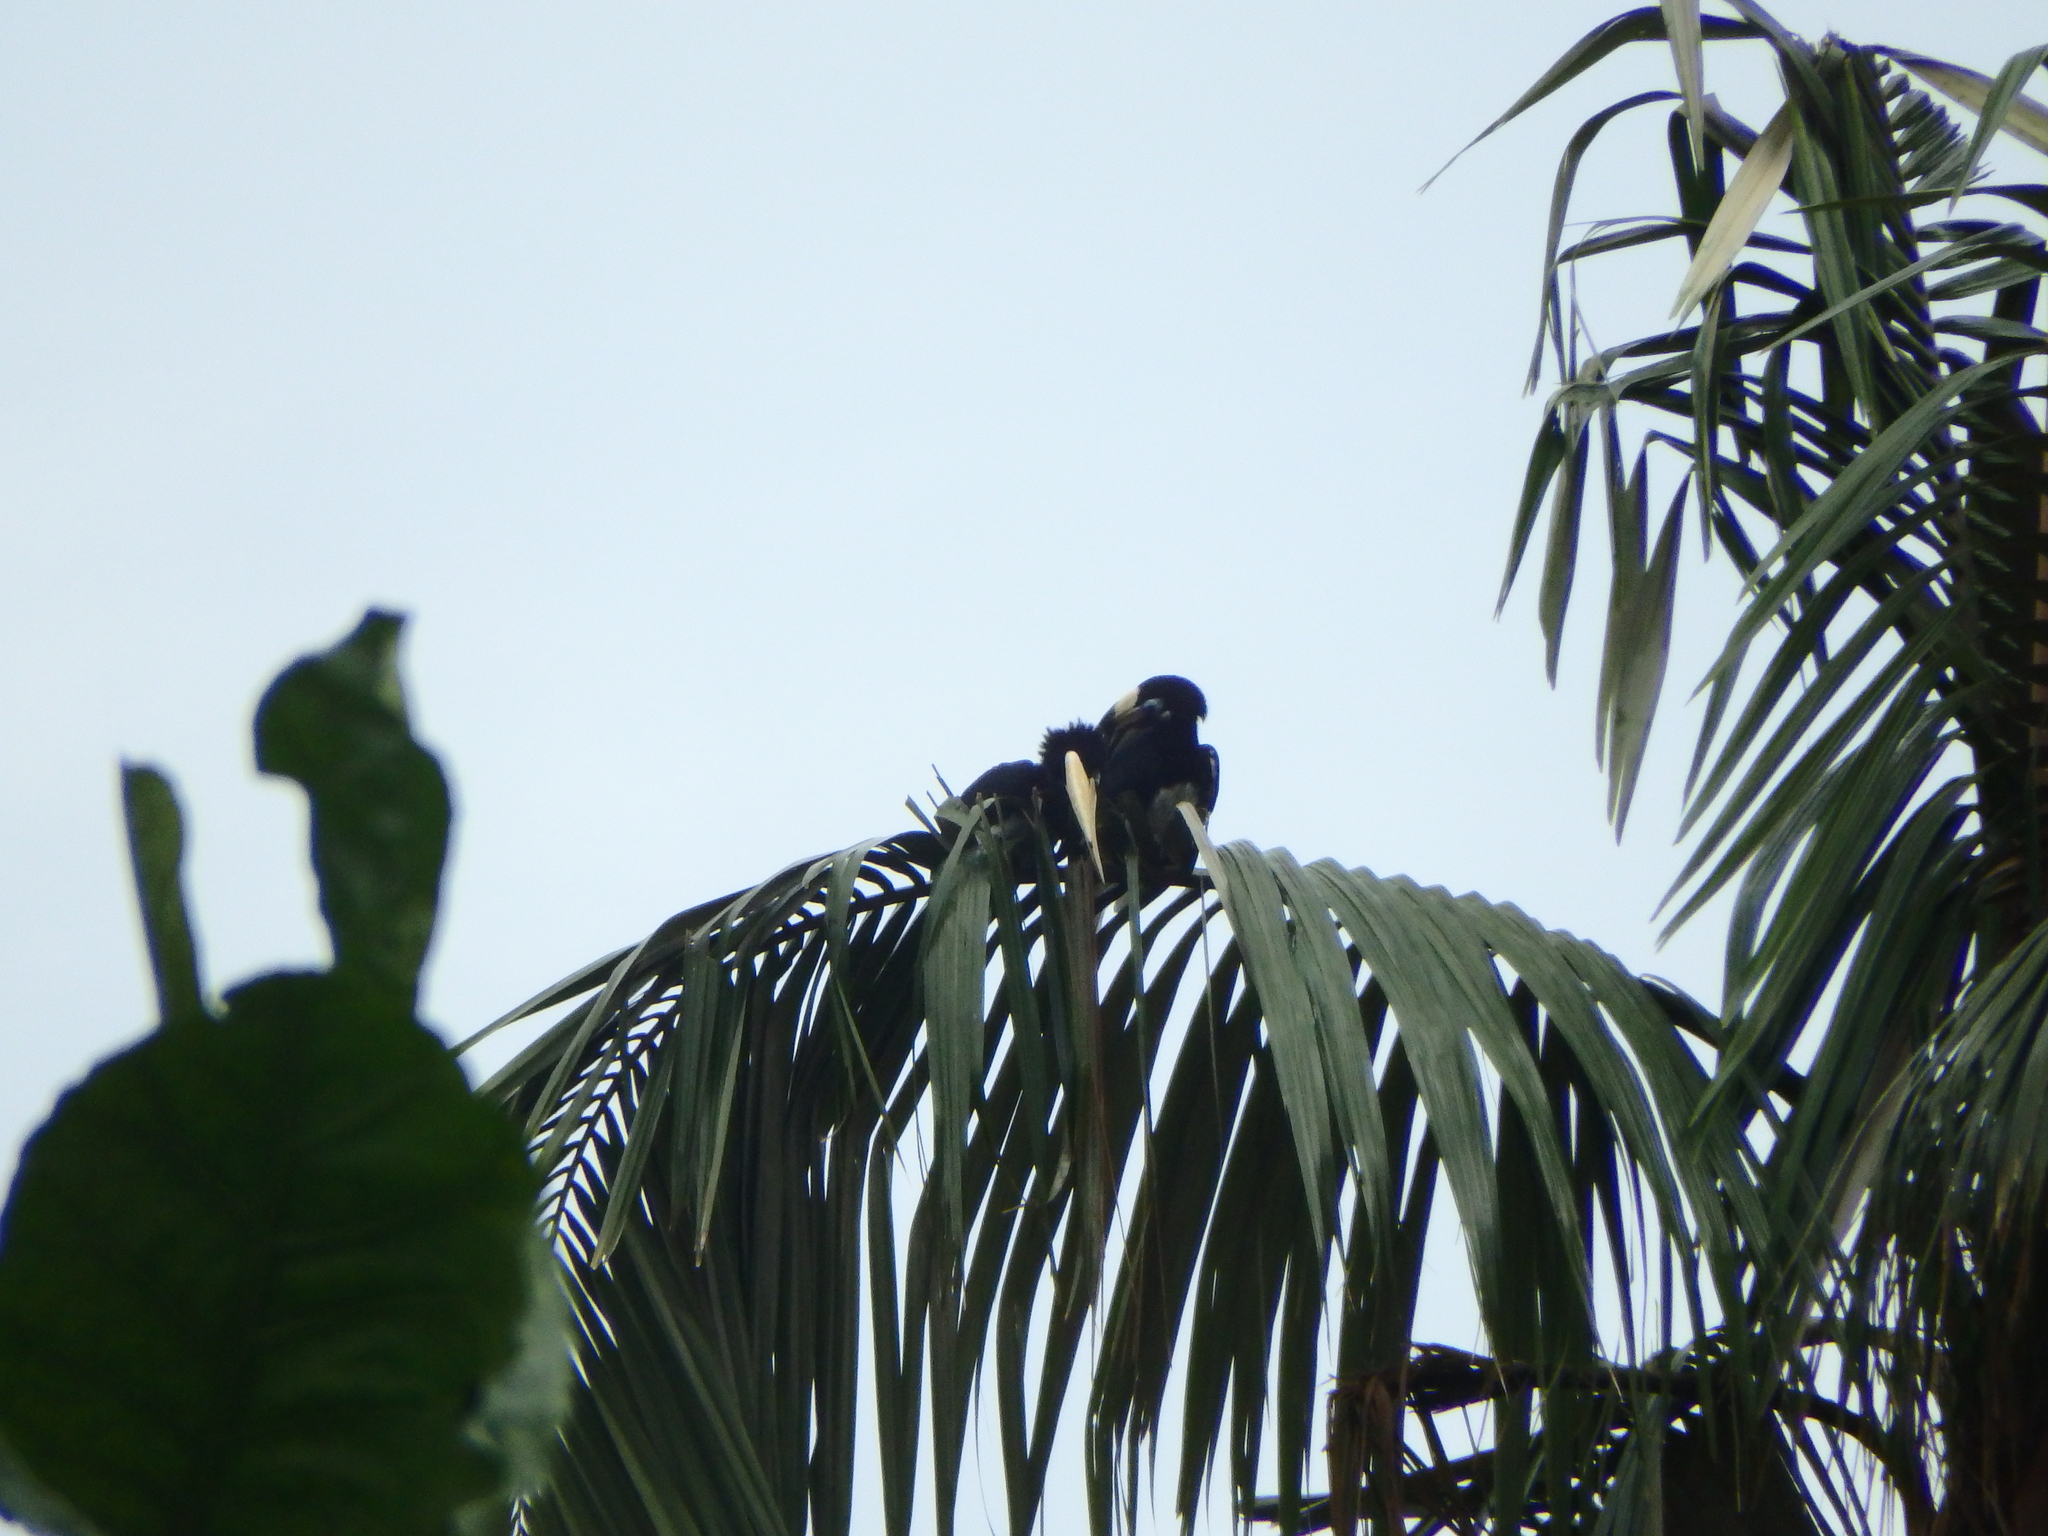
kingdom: Animalia
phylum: Chordata
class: Aves
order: Bucerotiformes
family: Bucerotidae
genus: Anthracoceros
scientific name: Anthracoceros albirostris
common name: Oriental pied-hornbill
